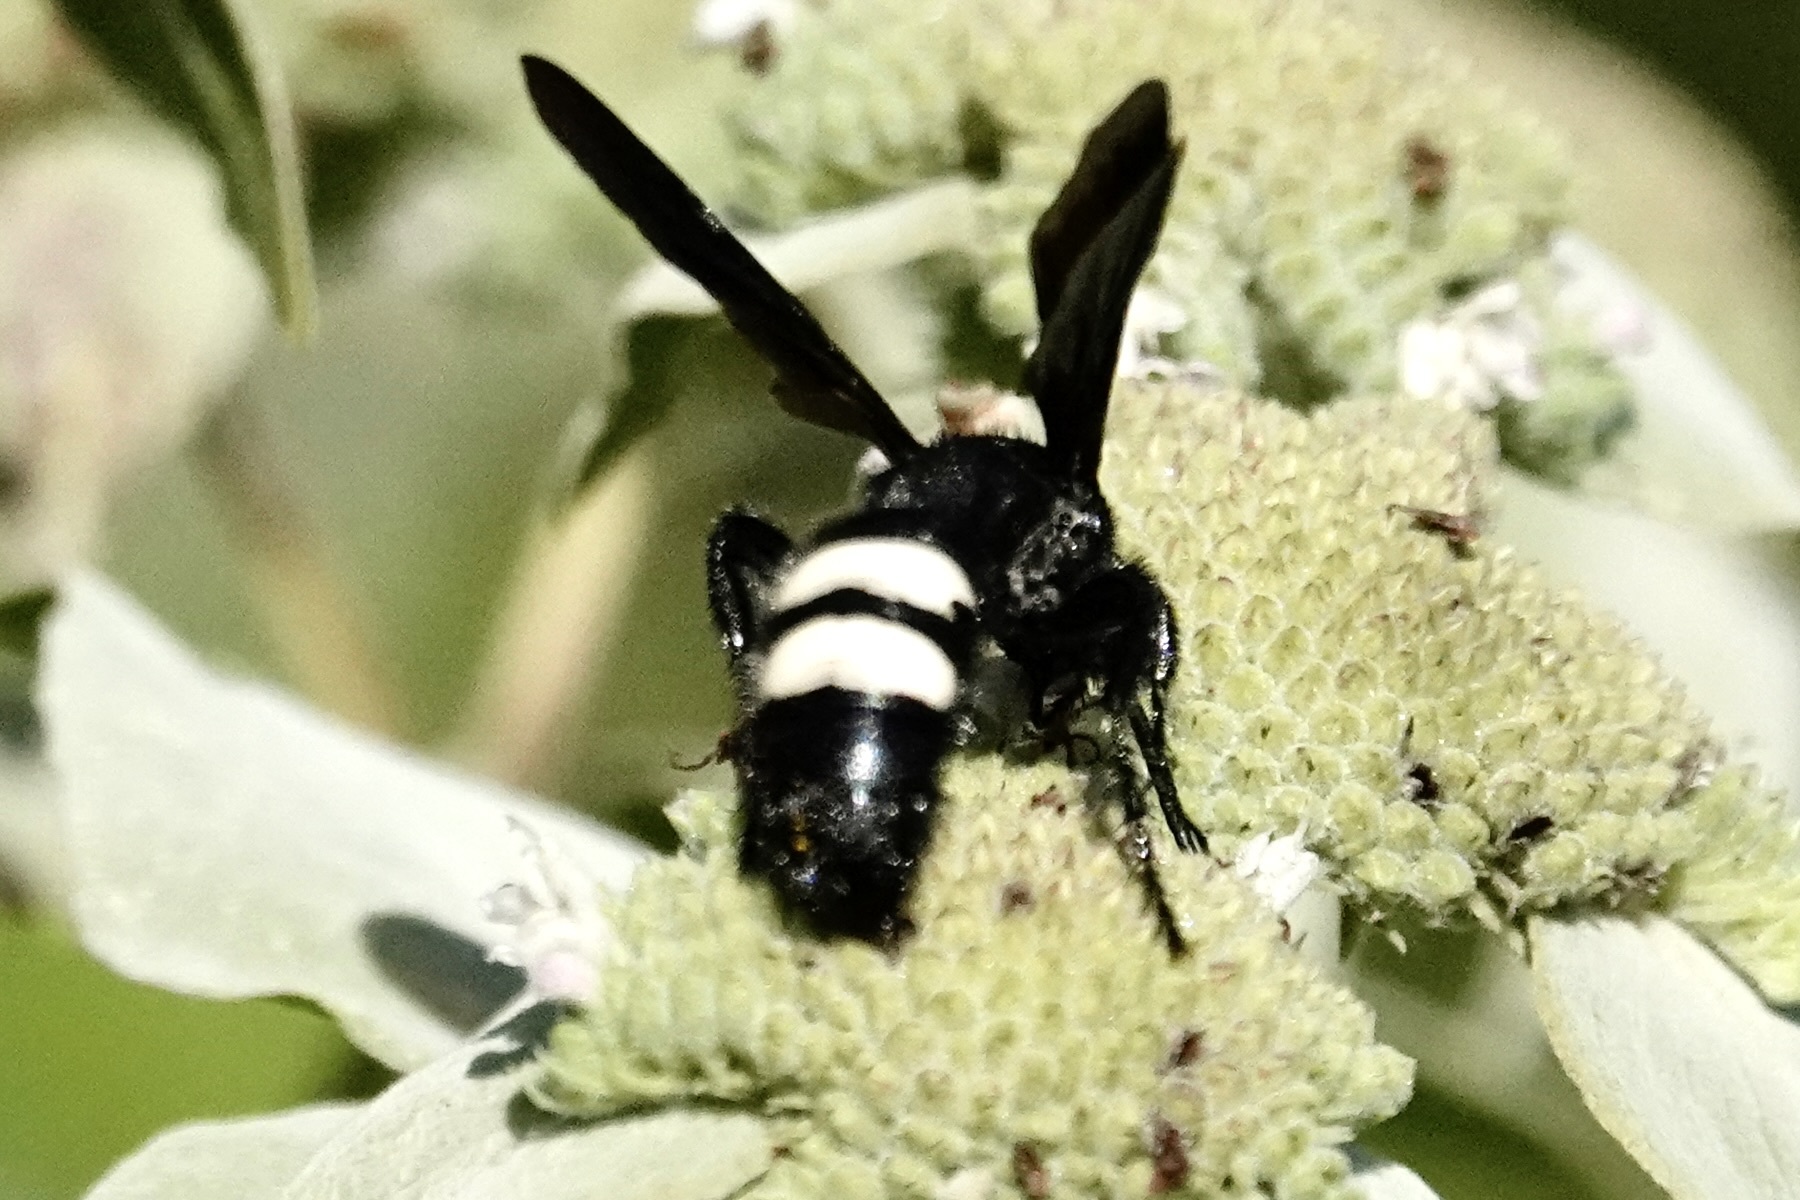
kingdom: Animalia
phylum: Arthropoda
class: Insecta
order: Hymenoptera
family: Scoliidae
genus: Scolia
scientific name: Scolia bicincta
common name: Double-banded scoliid wasp
